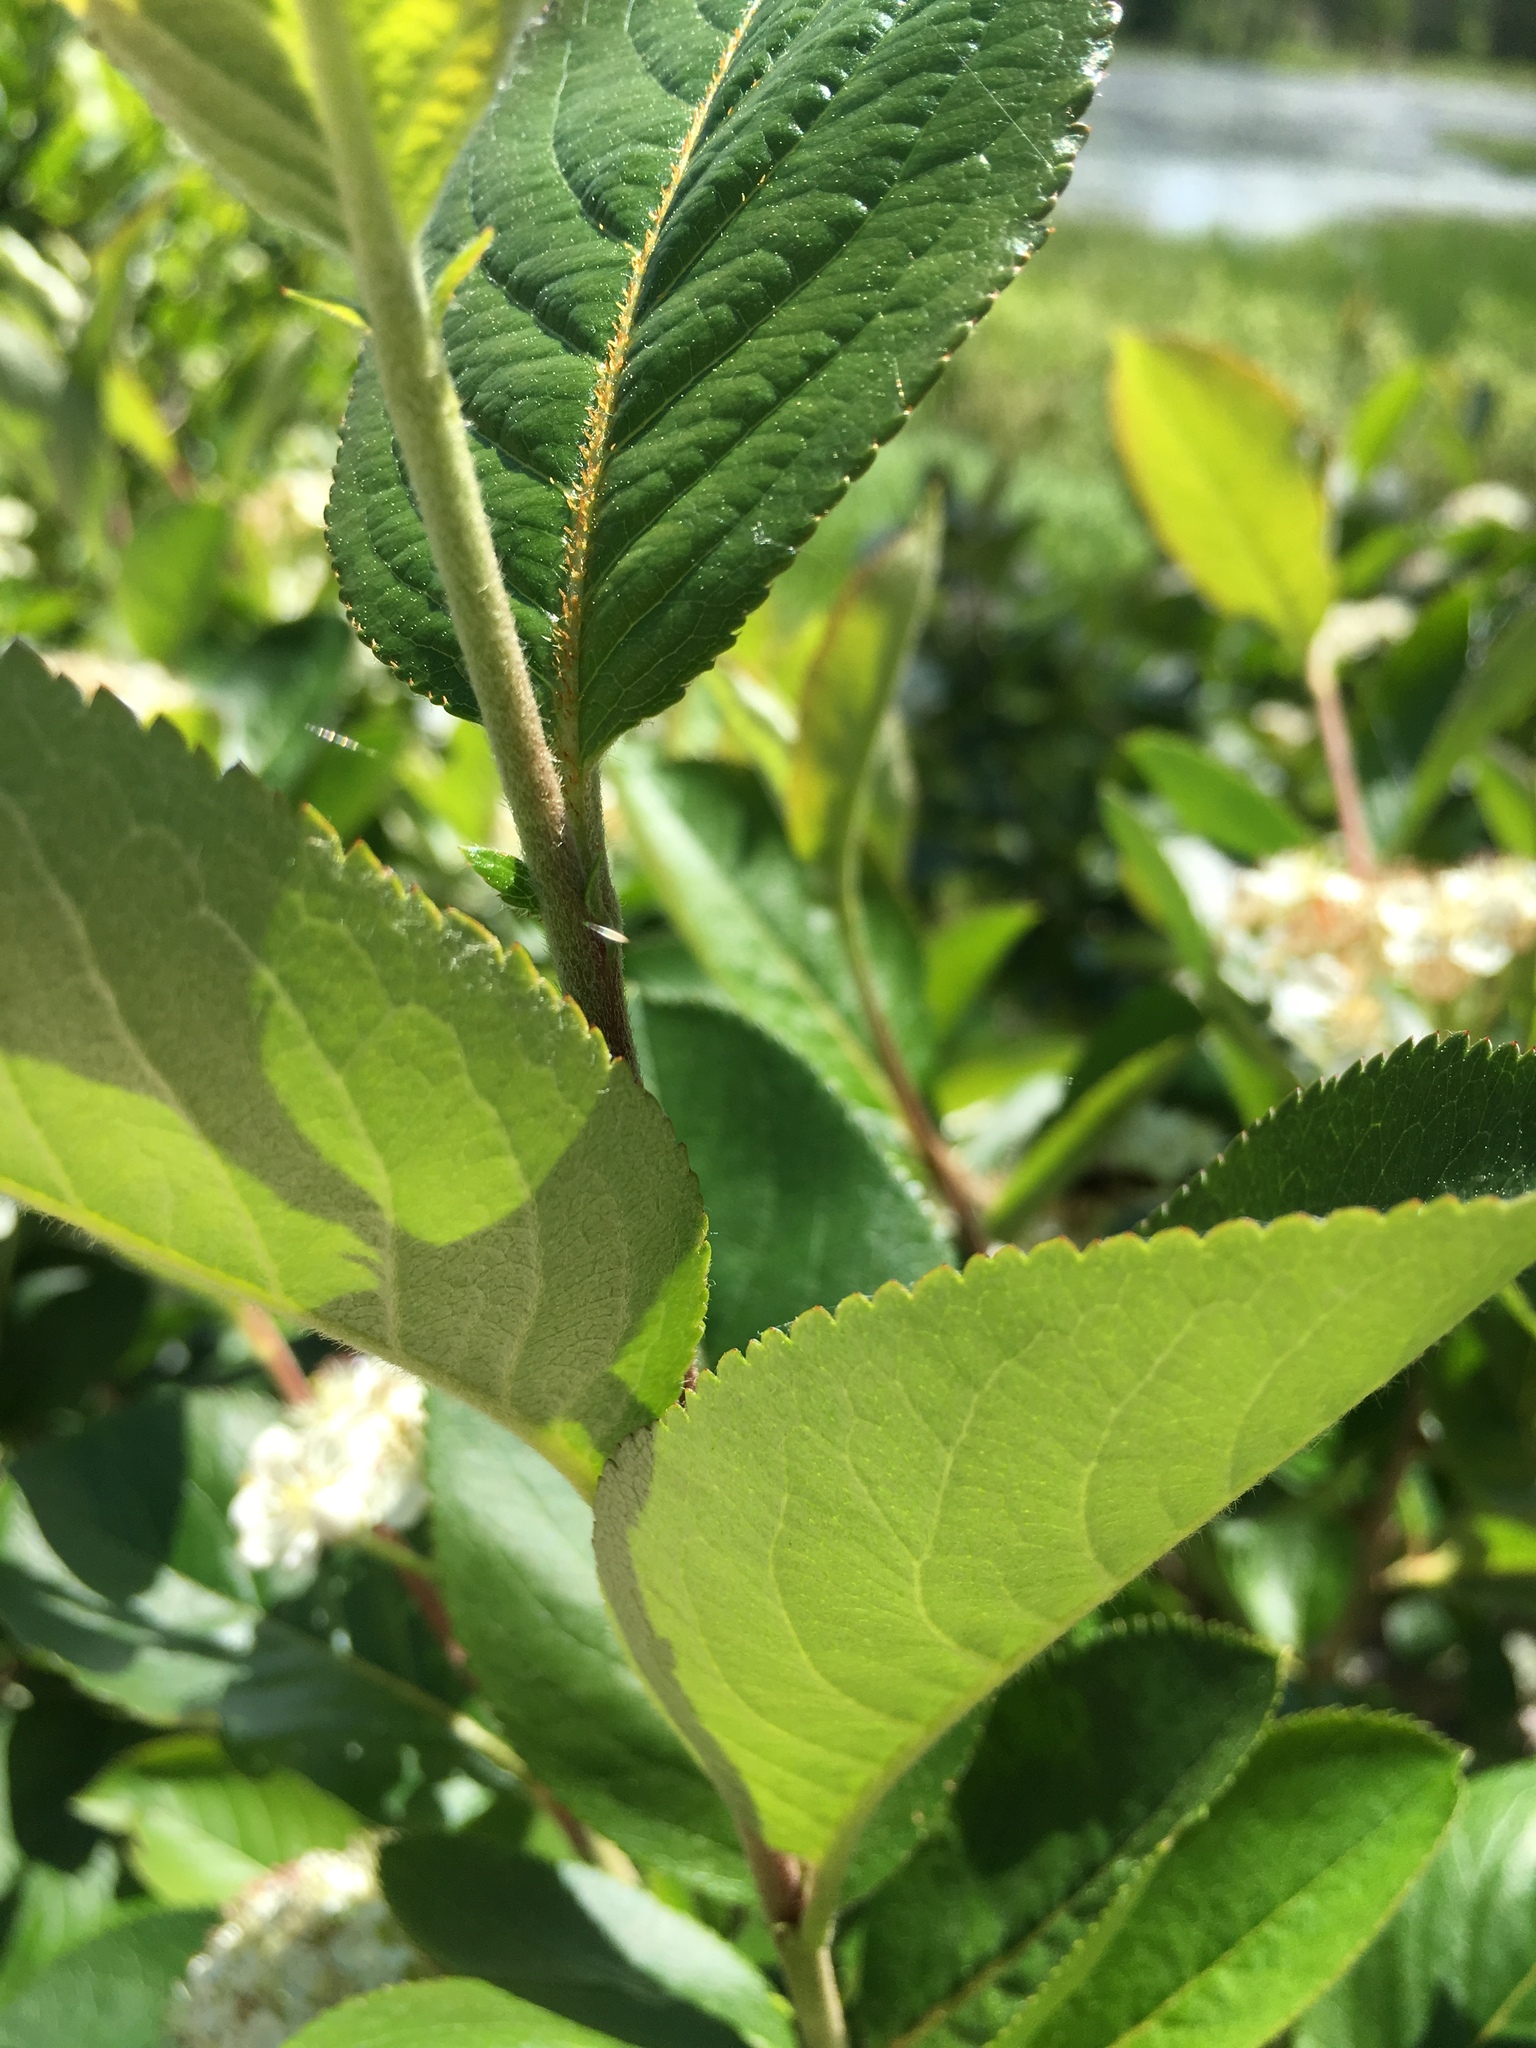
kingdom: Plantae
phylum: Tracheophyta
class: Magnoliopsida
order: Rosales
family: Rosaceae
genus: Aronia
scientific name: Aronia prunifolia
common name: Purple chokeberry
